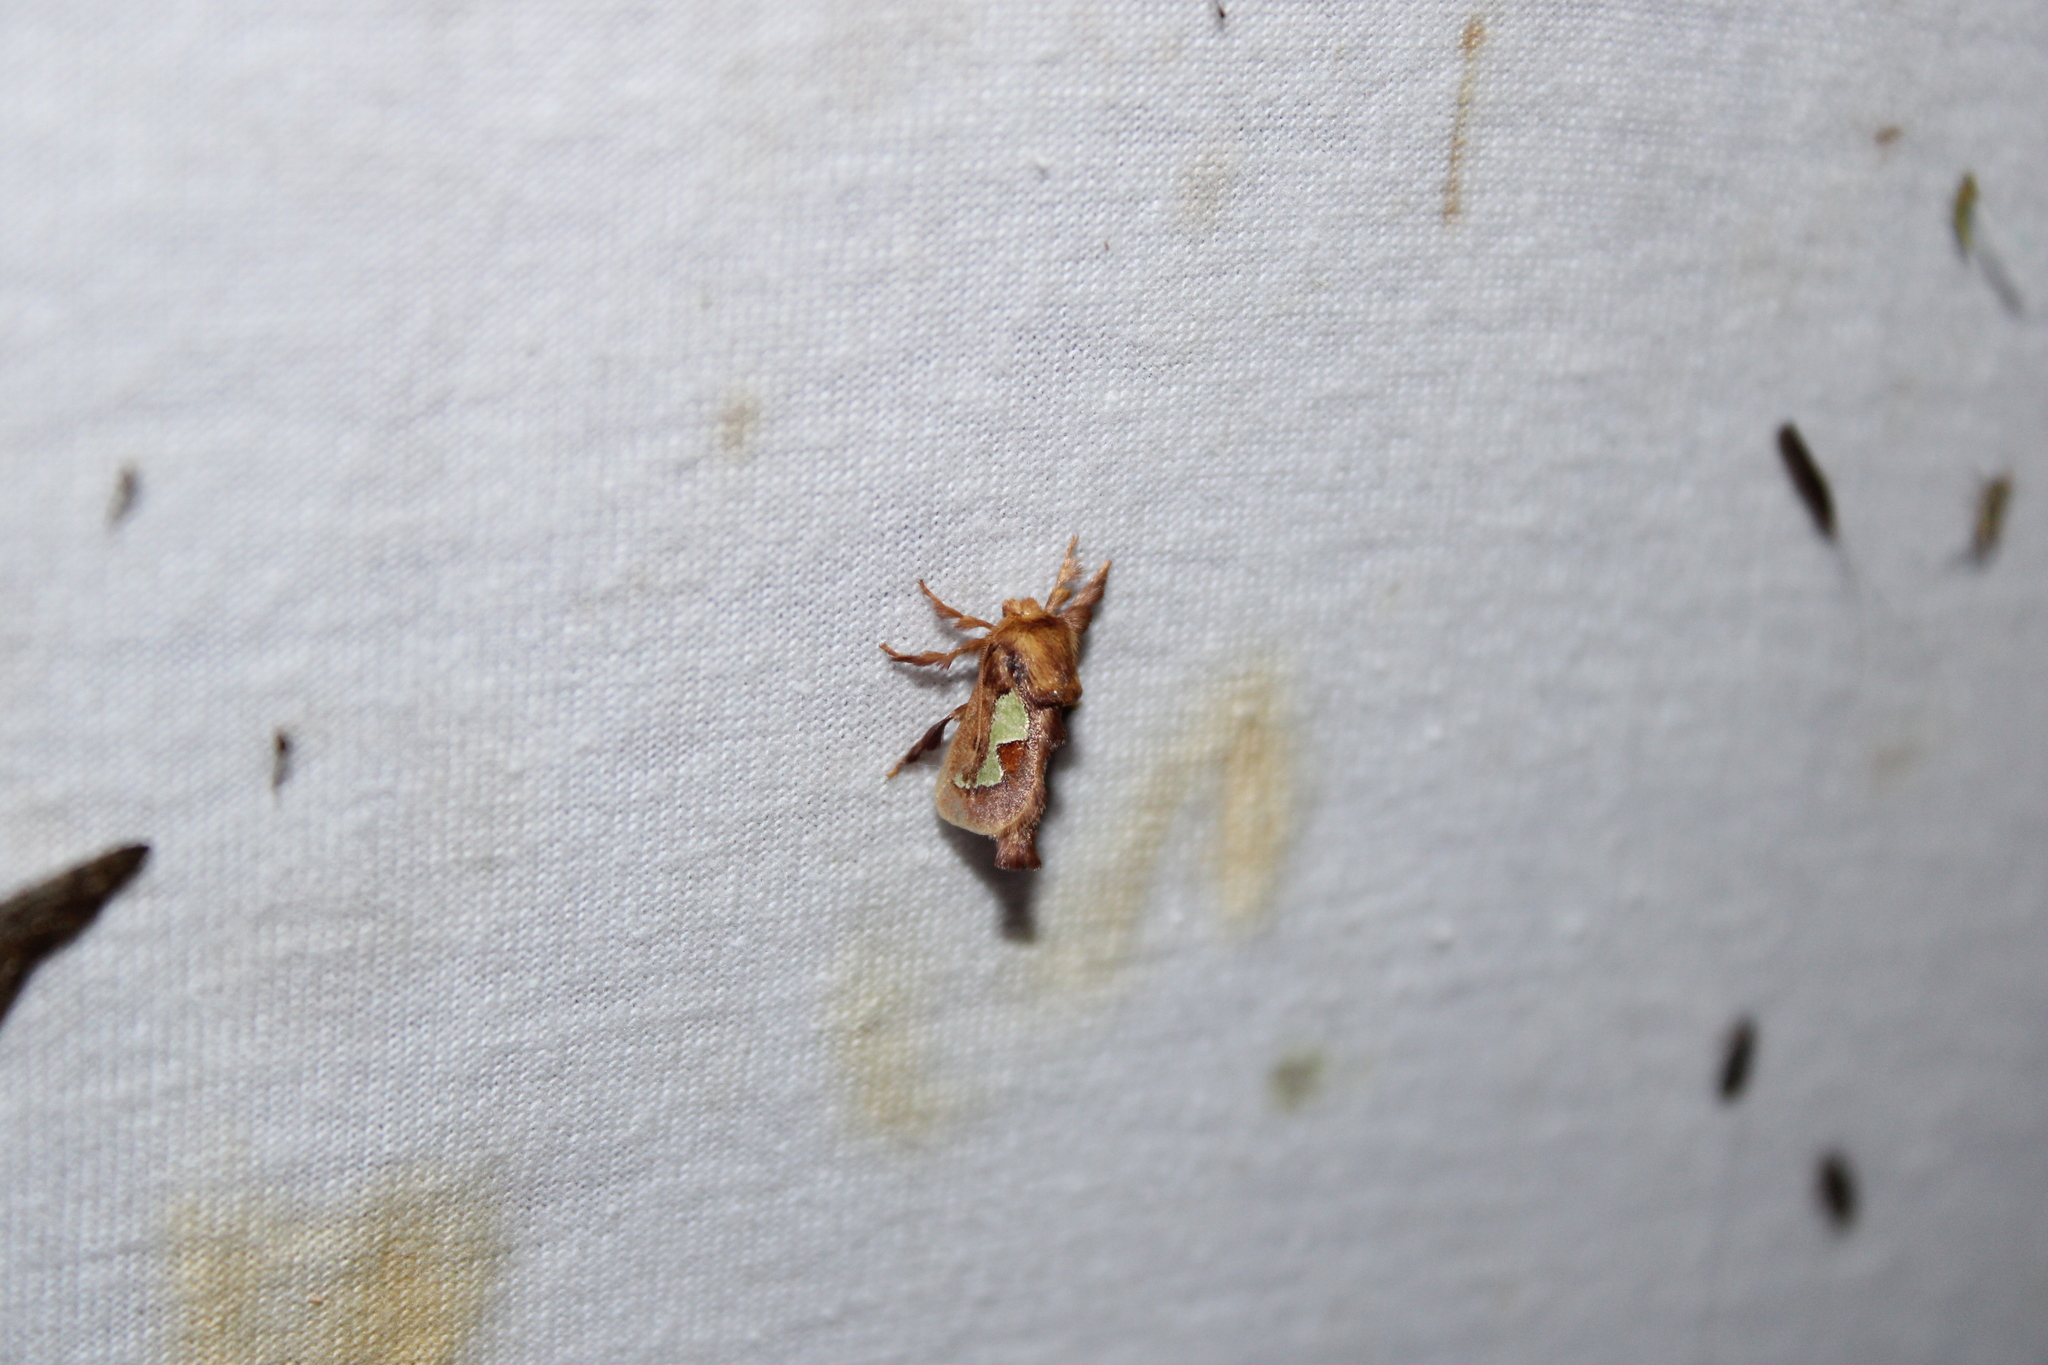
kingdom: Animalia
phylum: Arthropoda
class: Insecta
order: Lepidoptera
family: Limacodidae
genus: Euclea
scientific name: Euclea delphinii
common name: Spiny oak-slug moth
